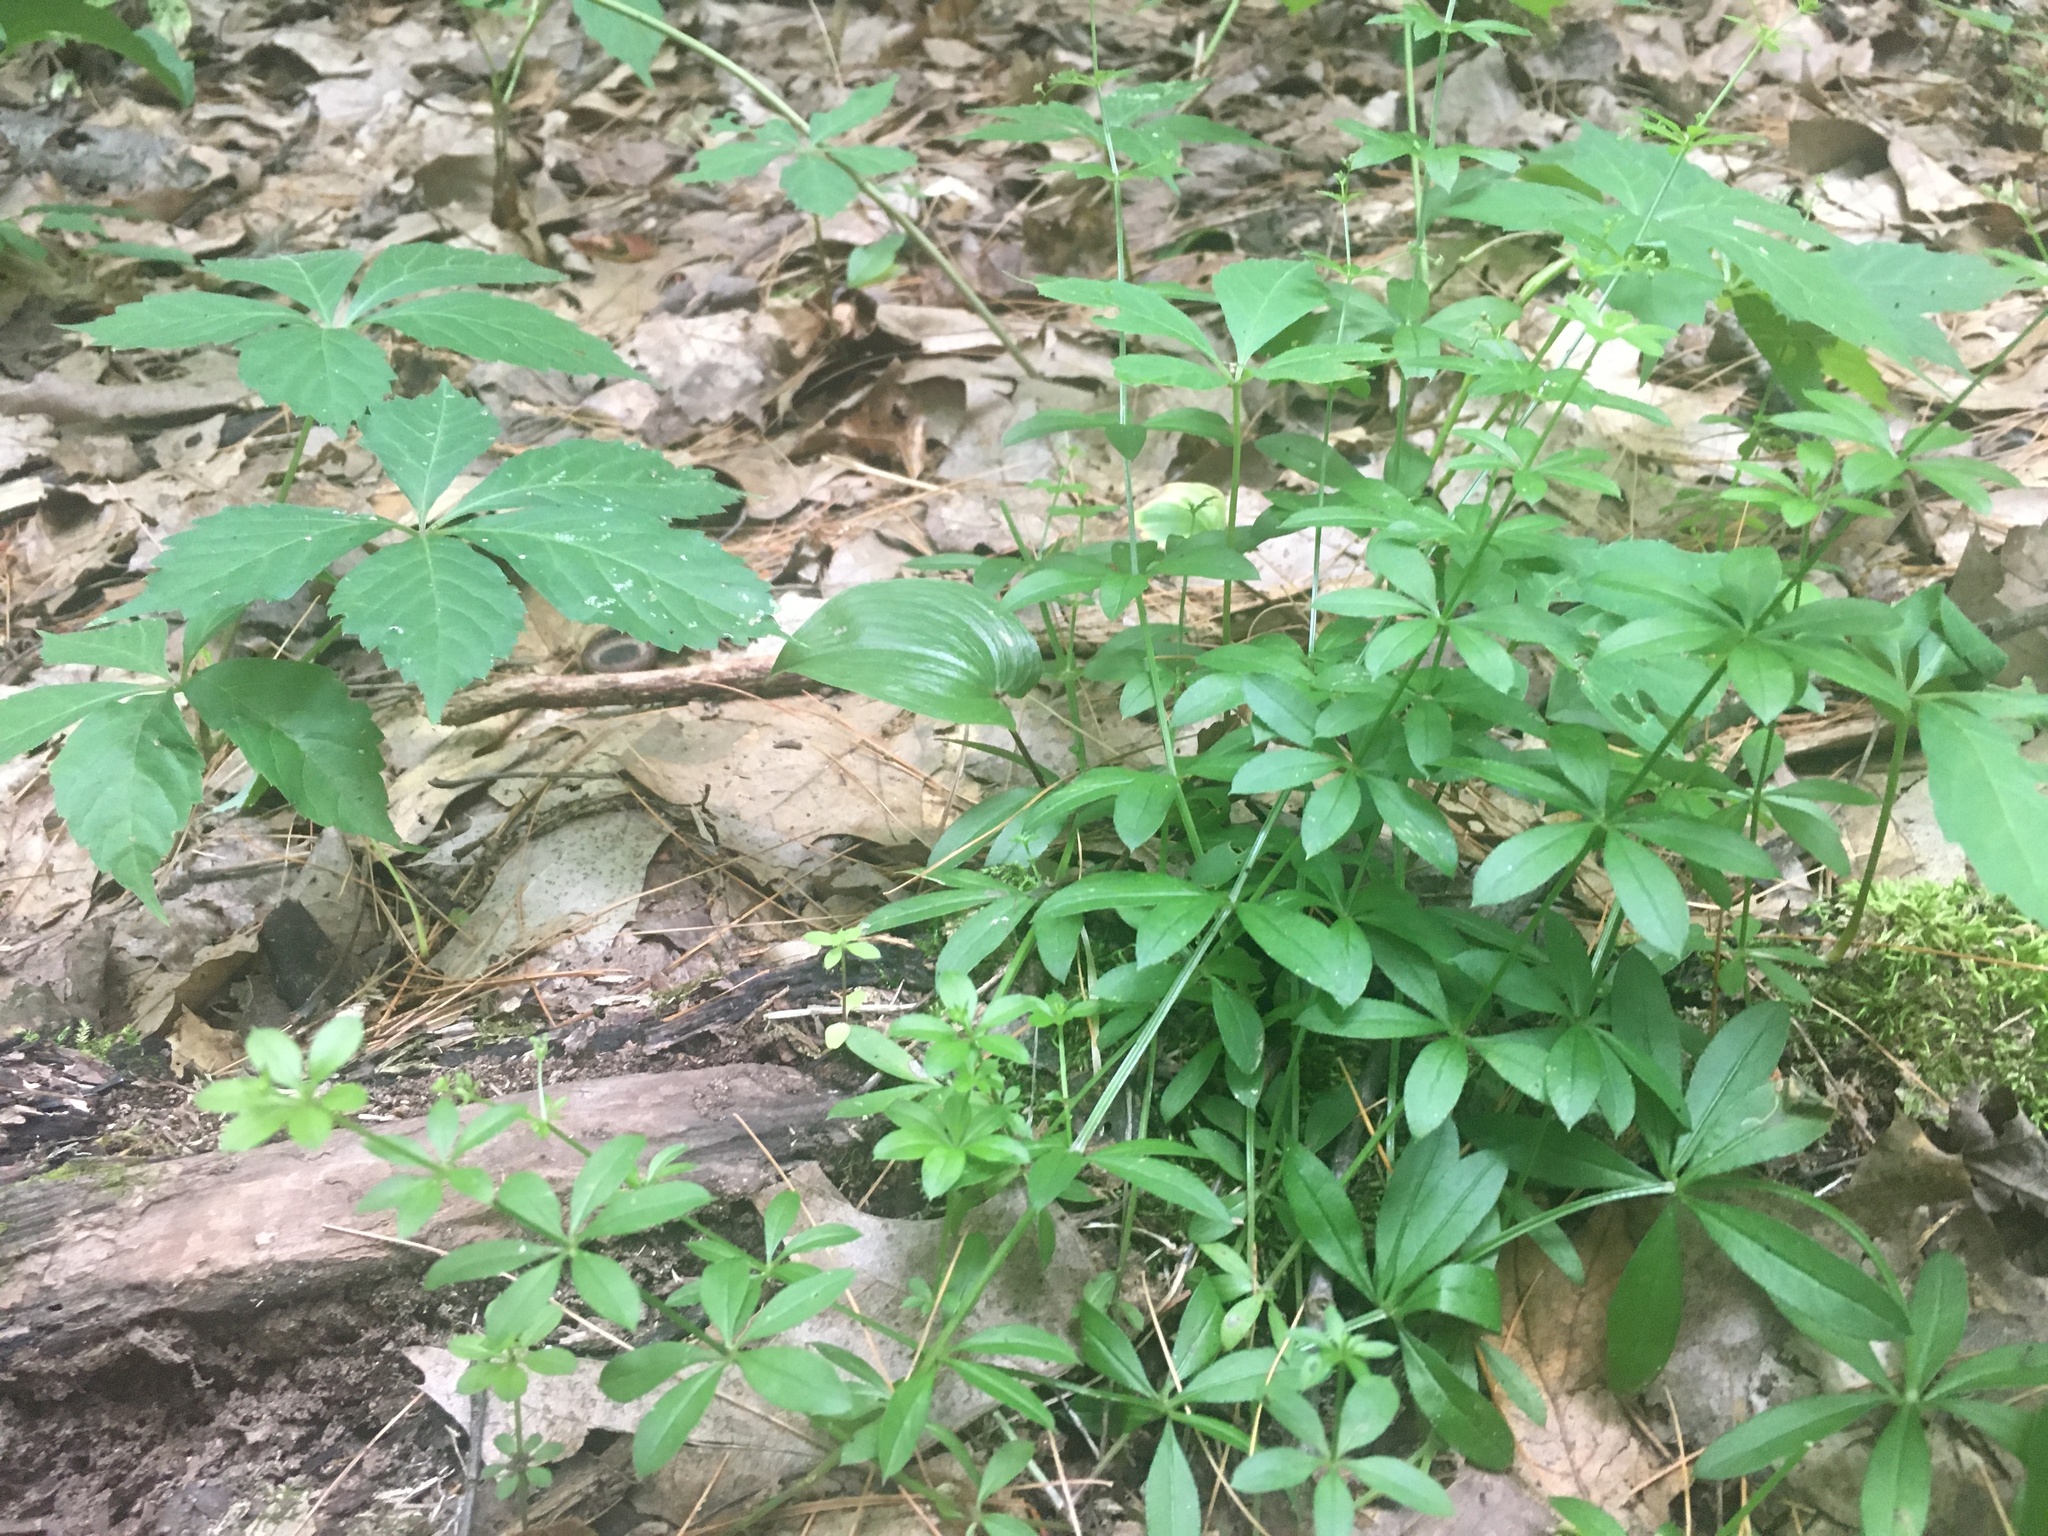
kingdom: Plantae
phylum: Tracheophyta
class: Magnoliopsida
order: Gentianales
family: Rubiaceae
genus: Galium
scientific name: Galium triflorum
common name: Fragrant bedstraw
